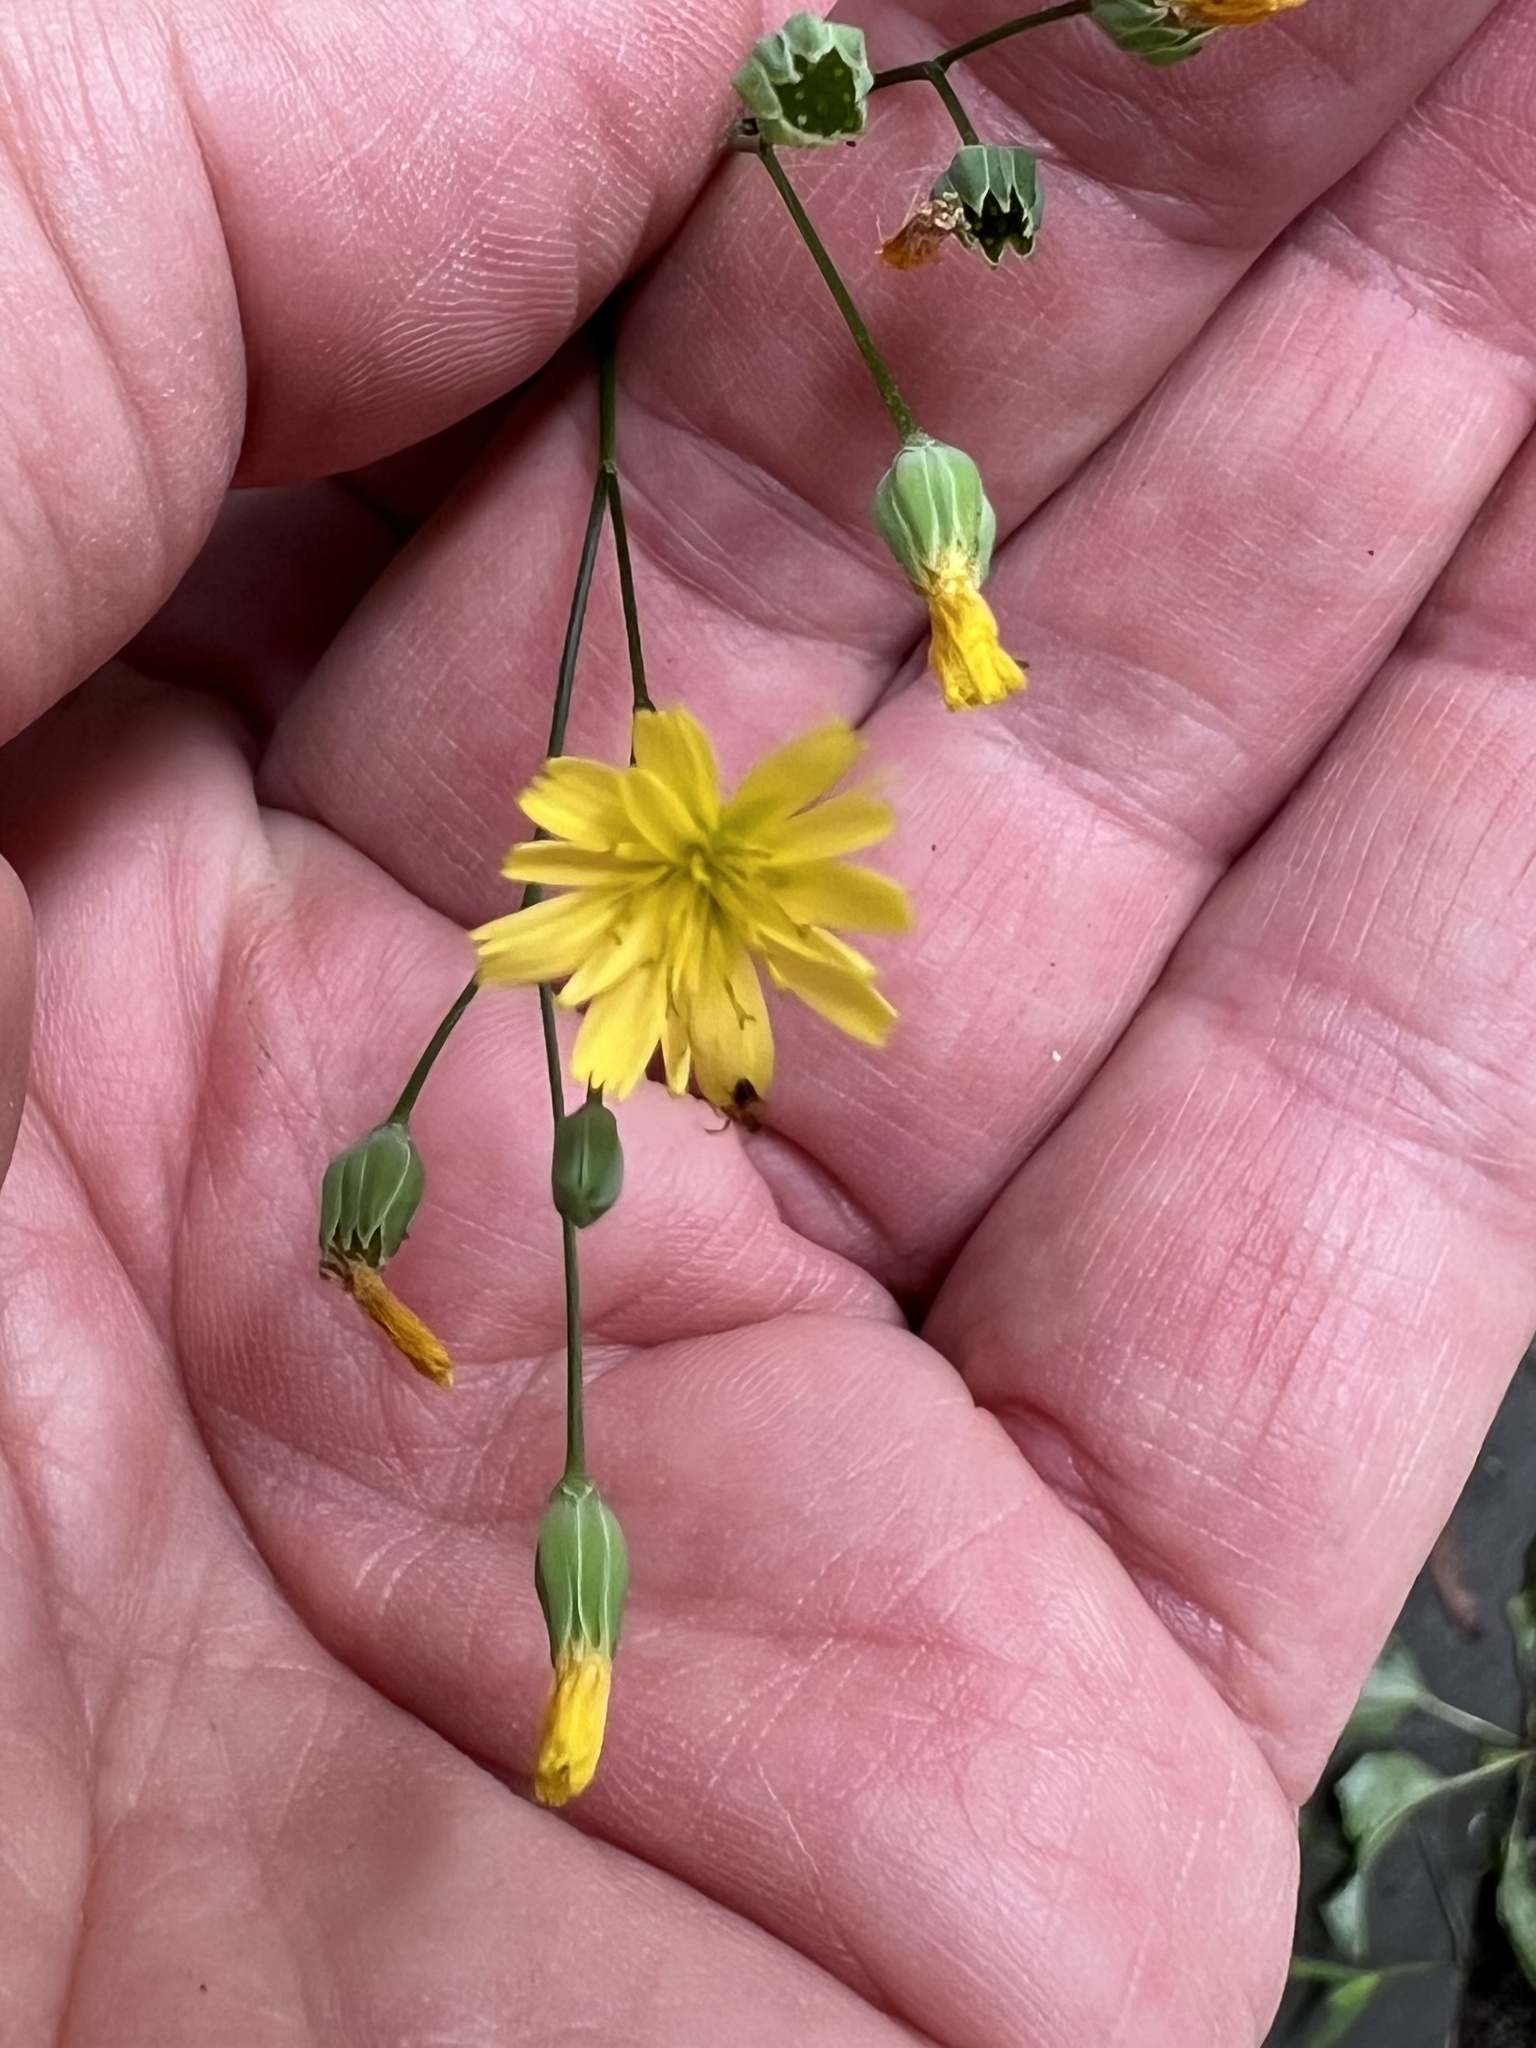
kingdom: Plantae
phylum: Tracheophyta
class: Magnoliopsida
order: Asterales
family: Asteraceae
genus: Lapsana
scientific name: Lapsana communis
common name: Nipplewort
